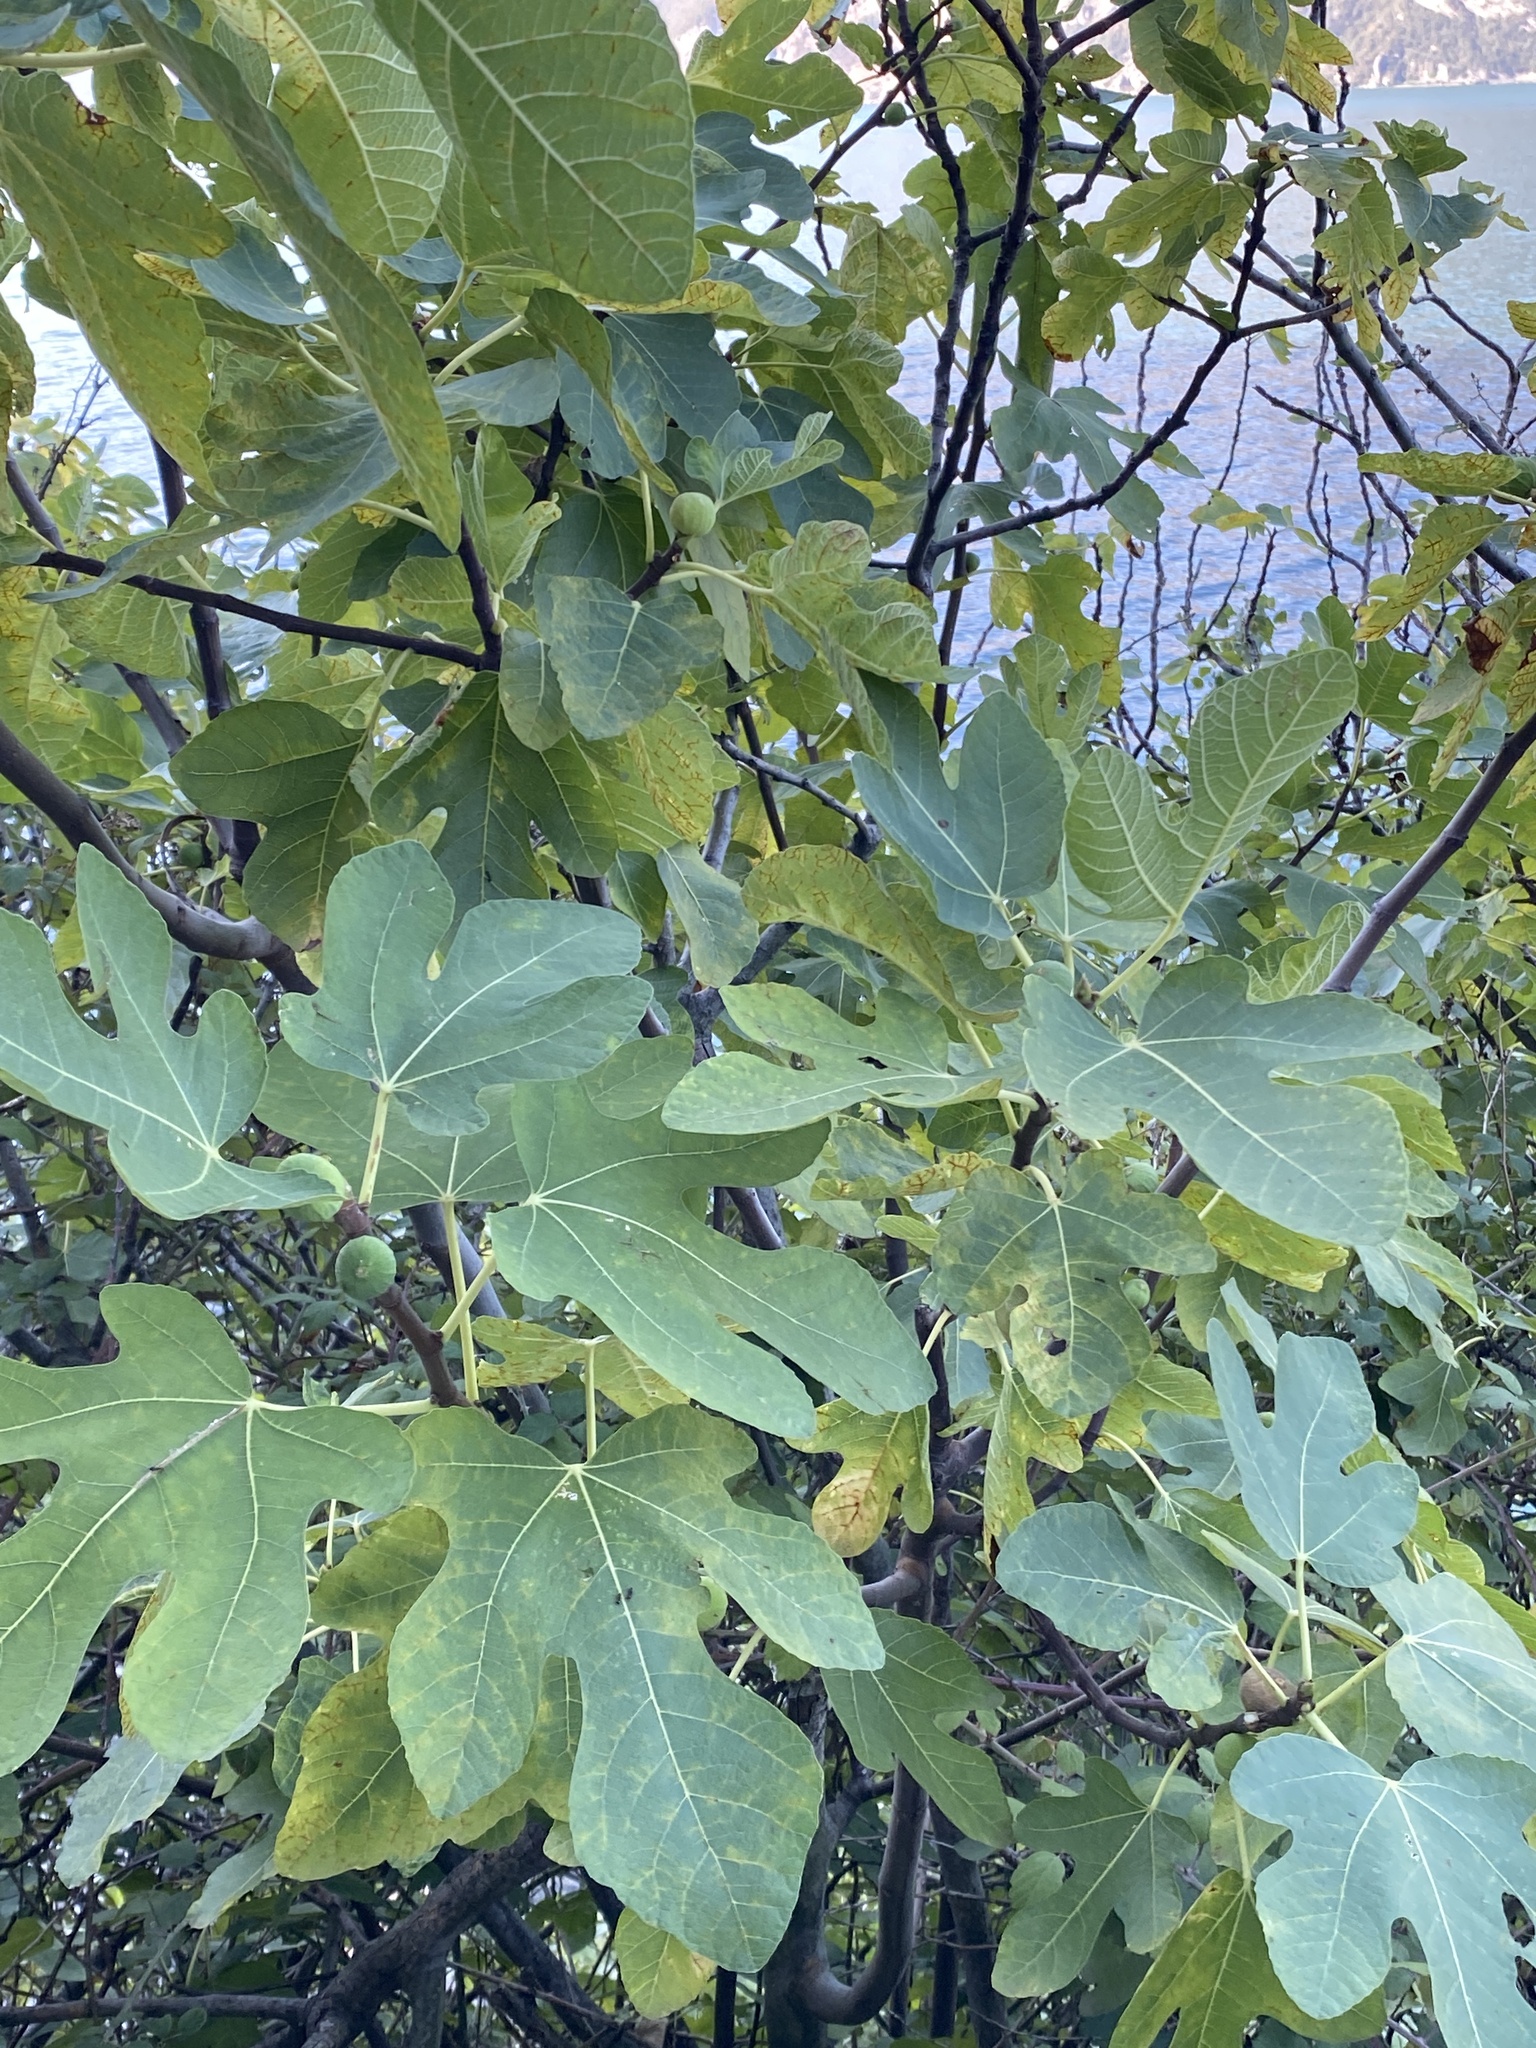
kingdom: Plantae
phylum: Tracheophyta
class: Magnoliopsida
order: Rosales
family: Moraceae
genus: Ficus
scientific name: Ficus carica
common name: Fig
